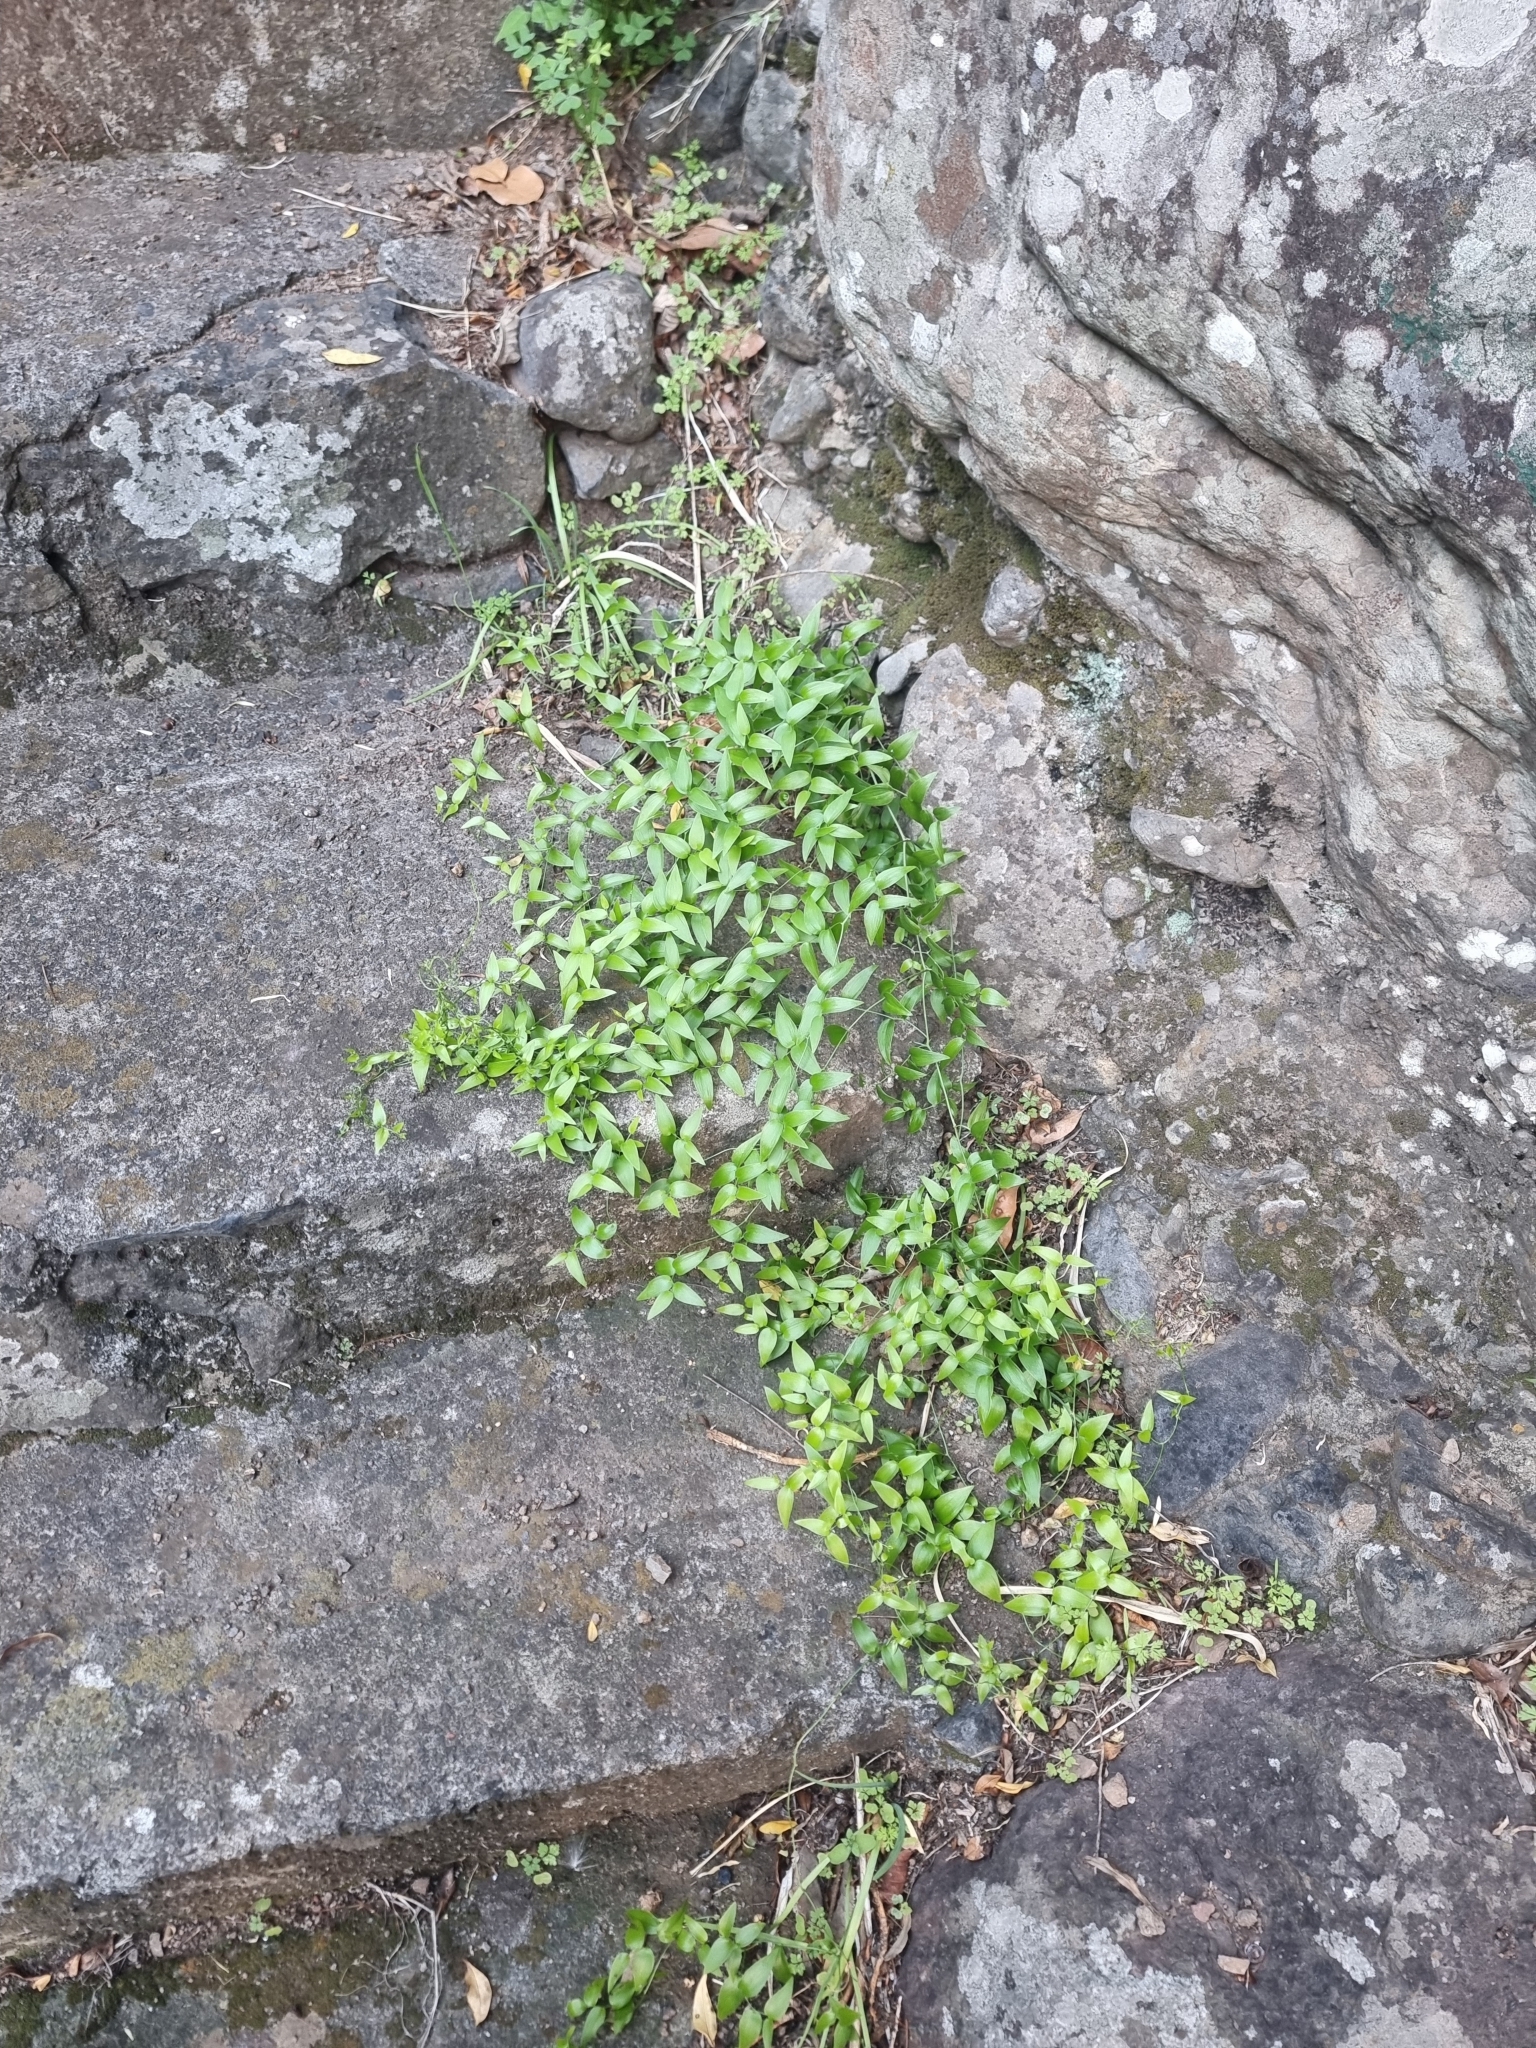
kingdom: Plantae
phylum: Tracheophyta
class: Liliopsida
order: Asparagales
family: Asparagaceae
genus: Asparagus
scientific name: Asparagus asparagoides
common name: African asparagus fern
